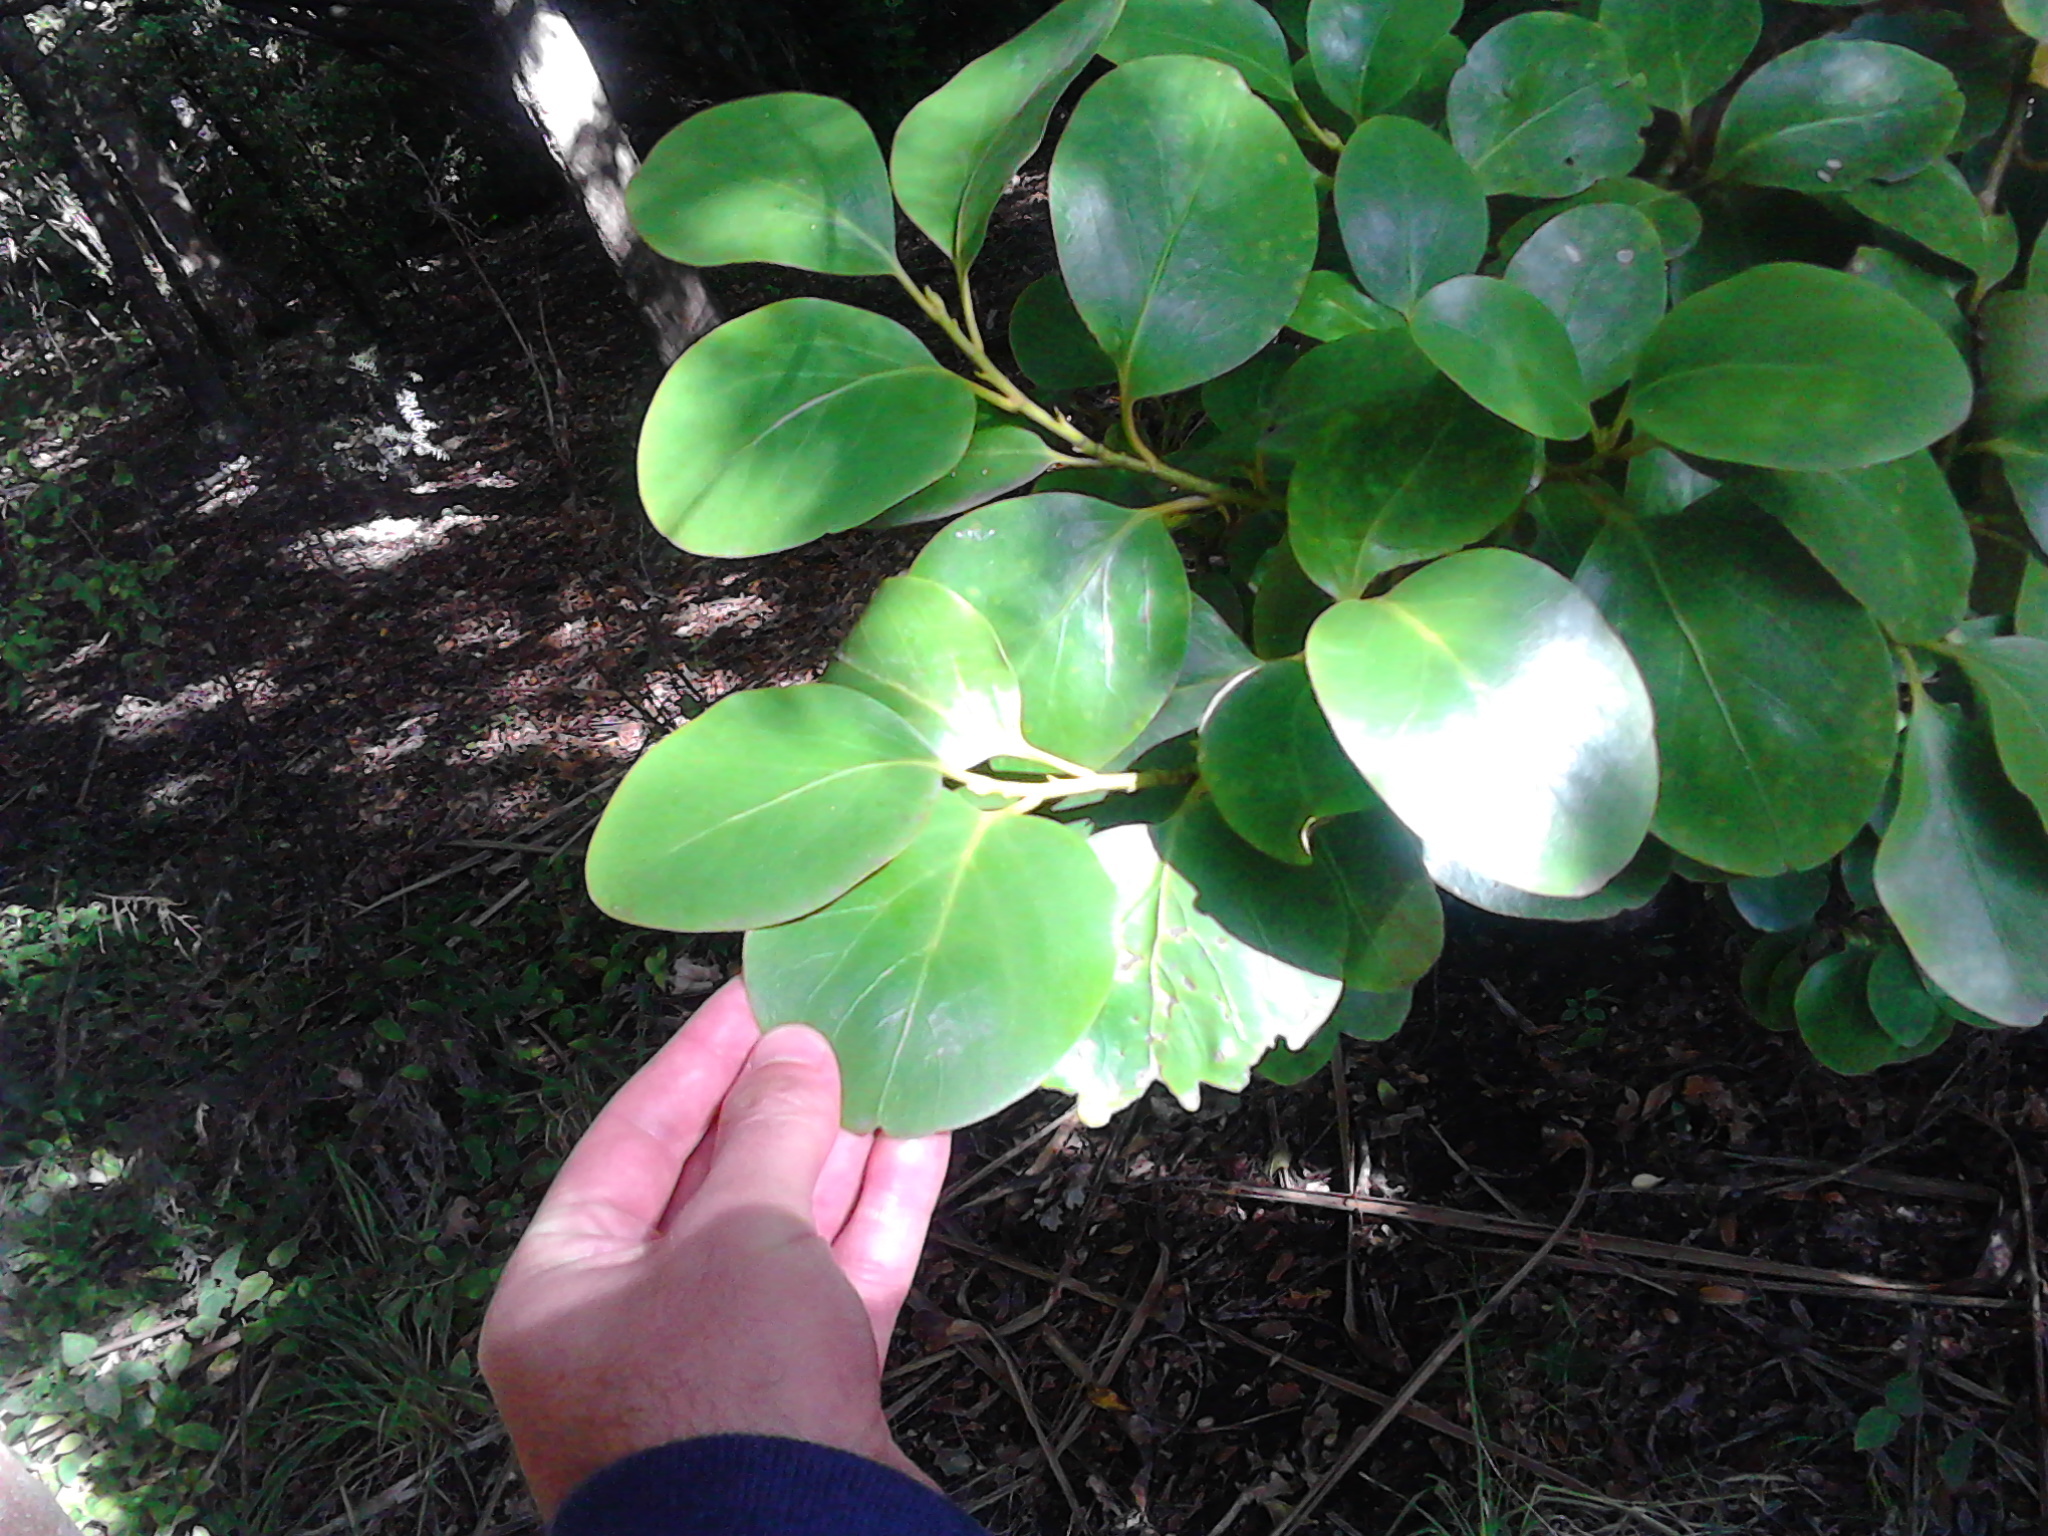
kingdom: Plantae
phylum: Tracheophyta
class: Magnoliopsida
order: Apiales
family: Griseliniaceae
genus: Griselinia
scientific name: Griselinia littoralis
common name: New zealand broadleaf
